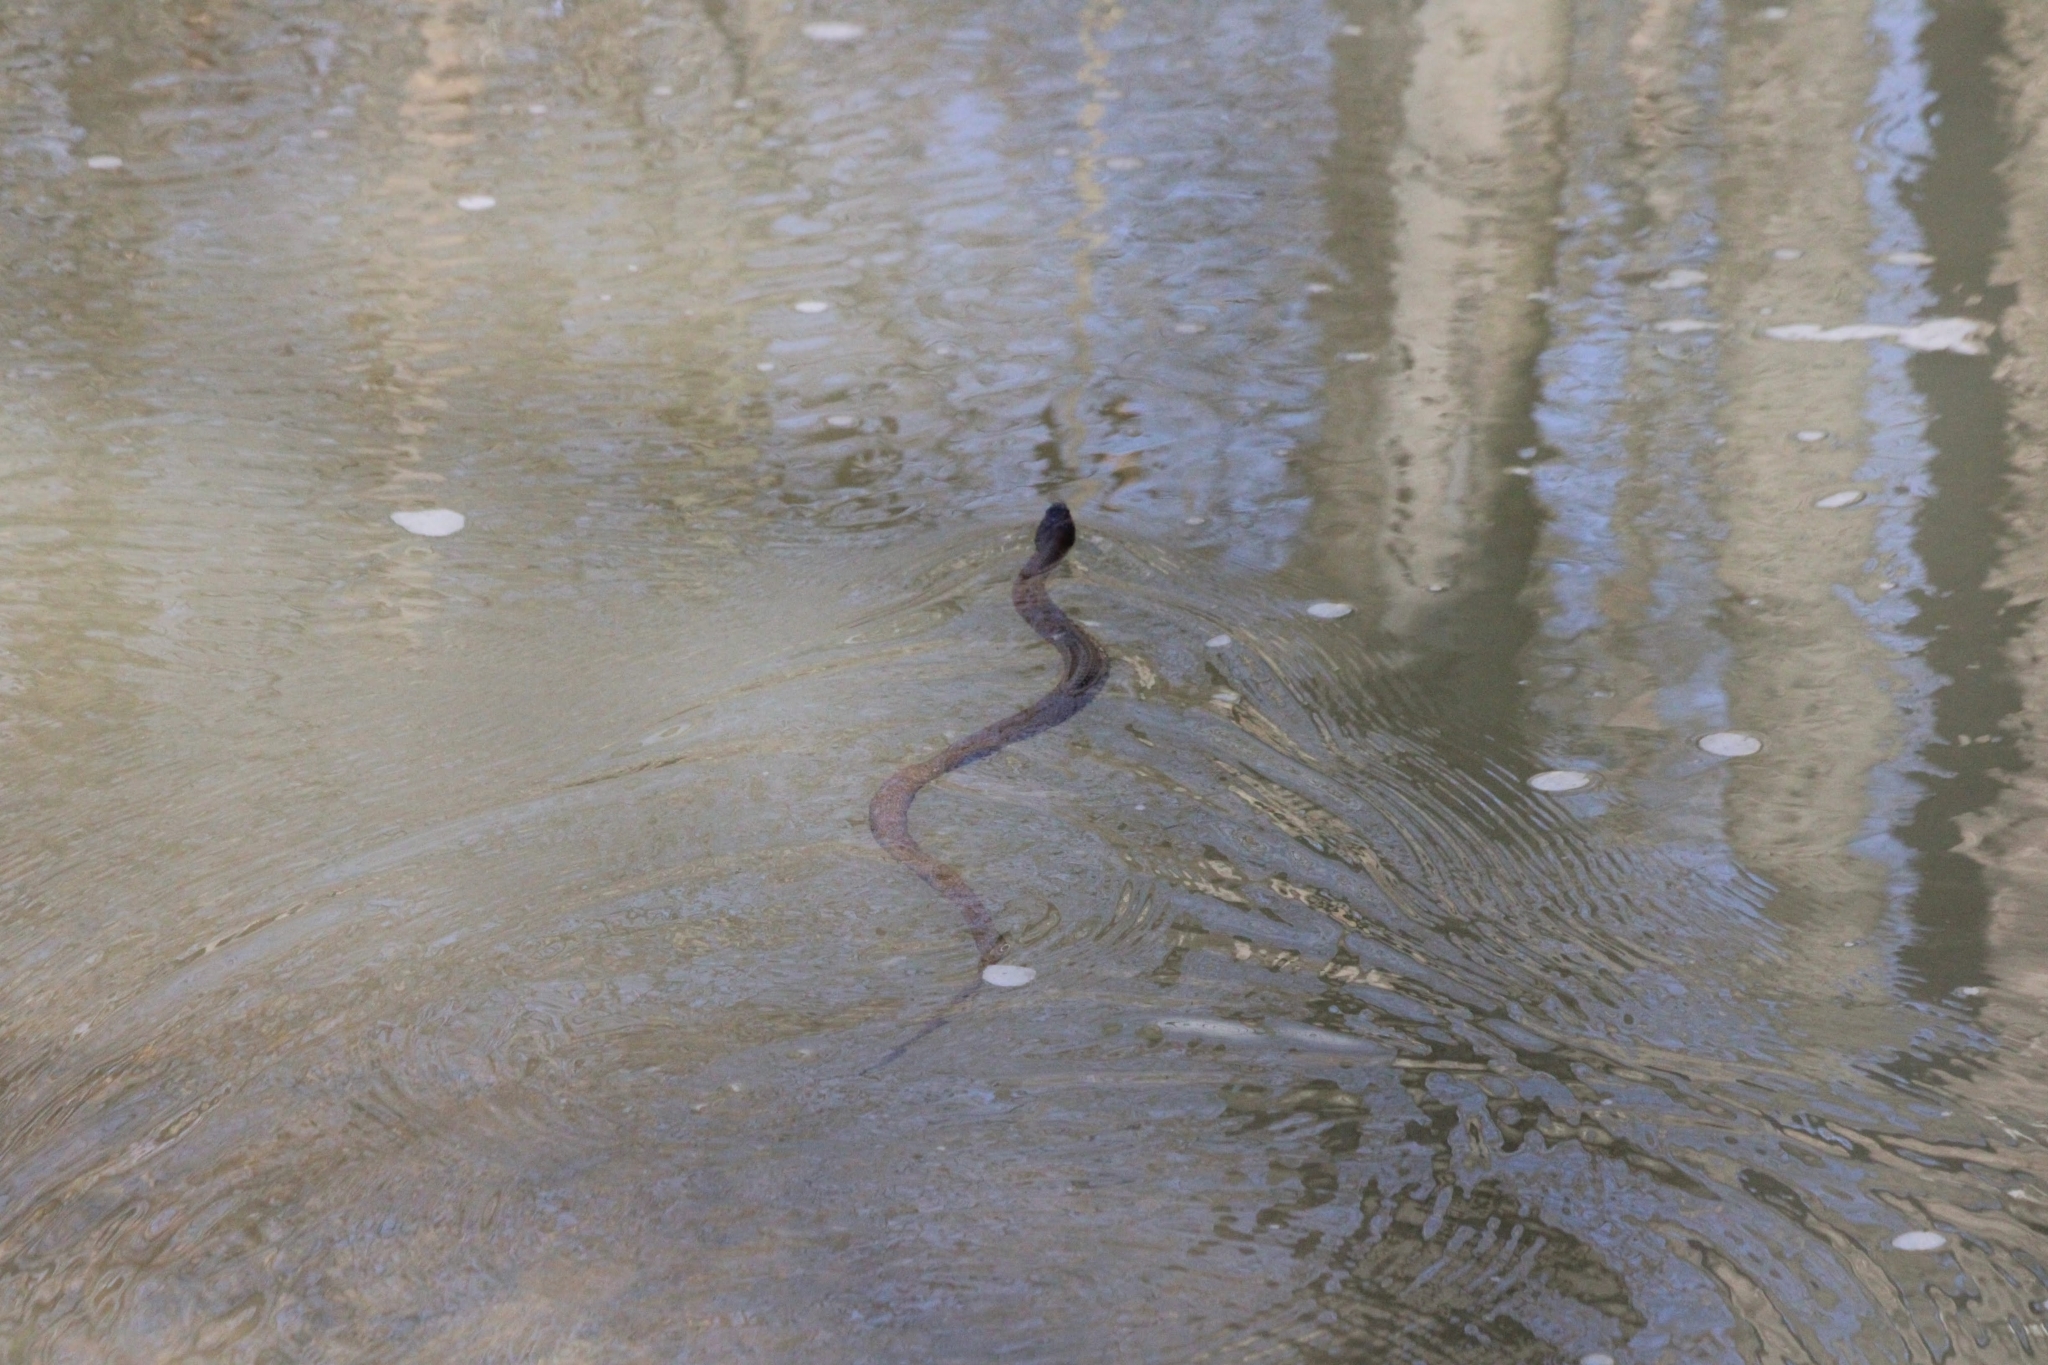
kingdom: Animalia
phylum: Chordata
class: Squamata
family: Colubridae
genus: Nerodia
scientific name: Nerodia sipedon
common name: Northern water snake
